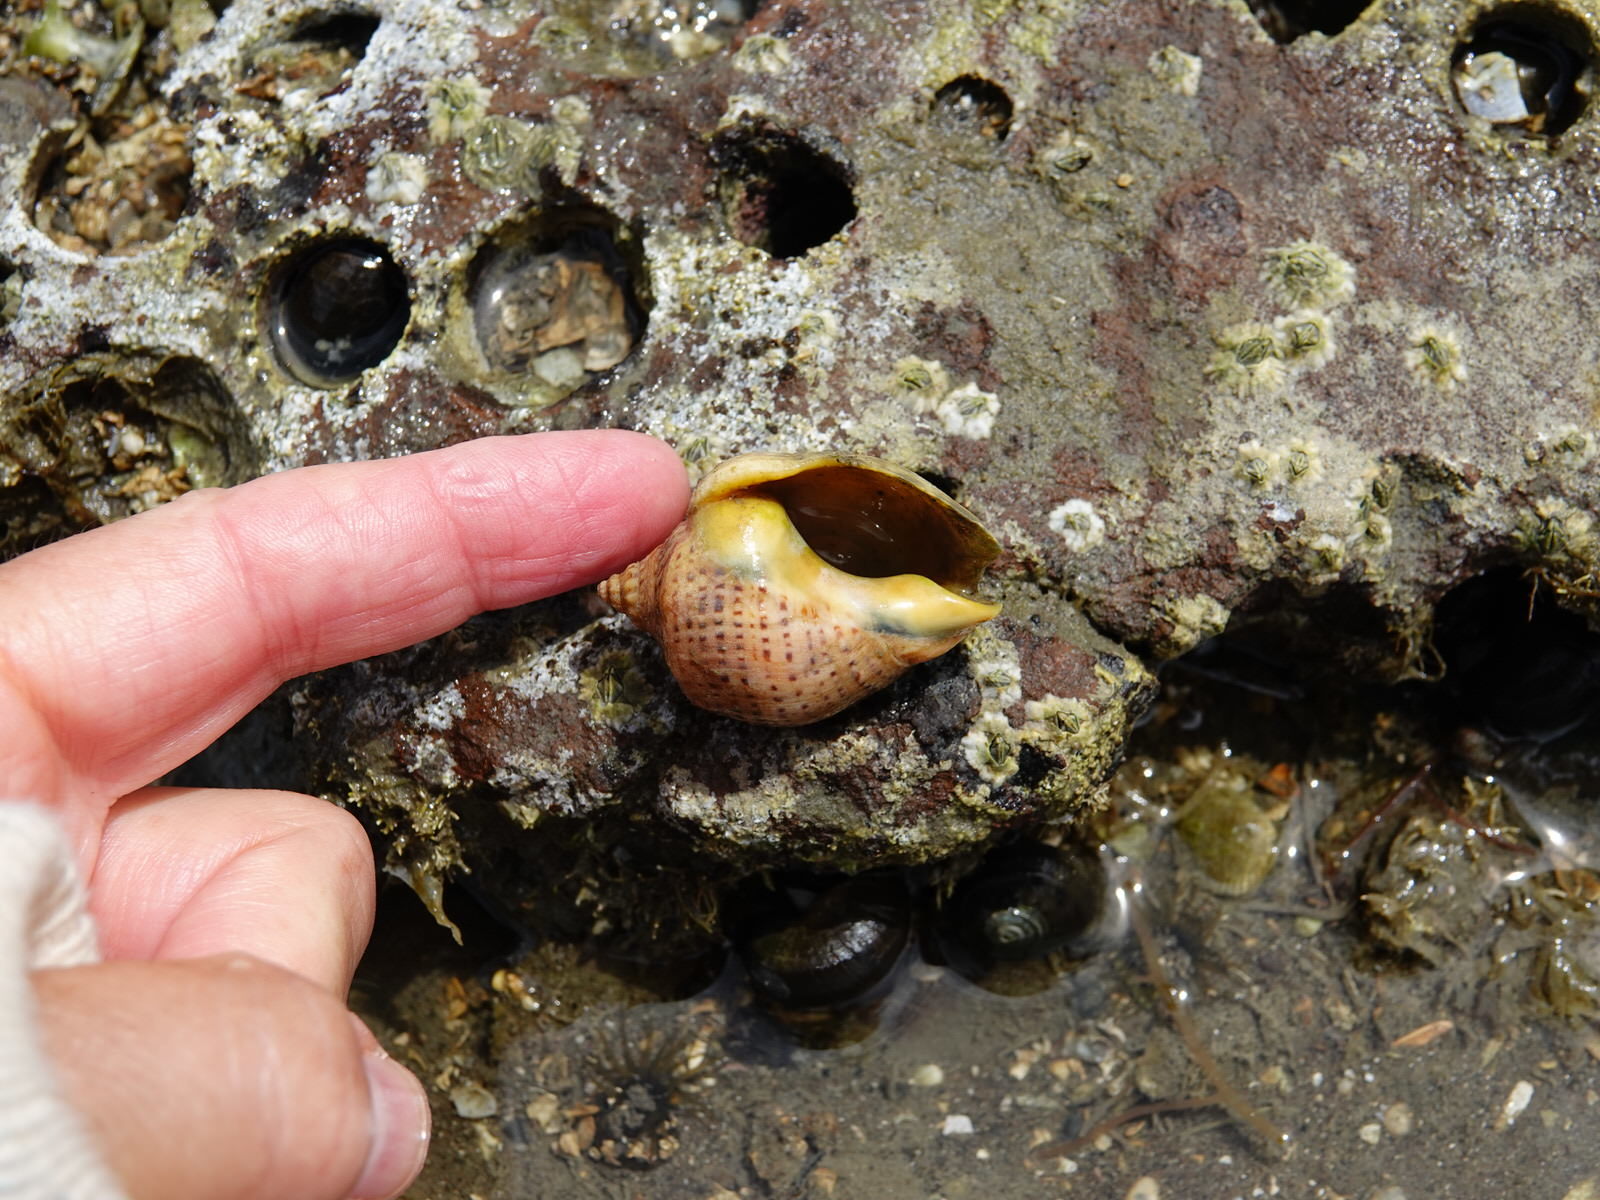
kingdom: Animalia
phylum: Mollusca
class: Gastropoda
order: Neogastropoda
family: Cominellidae
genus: Cominella
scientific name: Cominella adspersa
